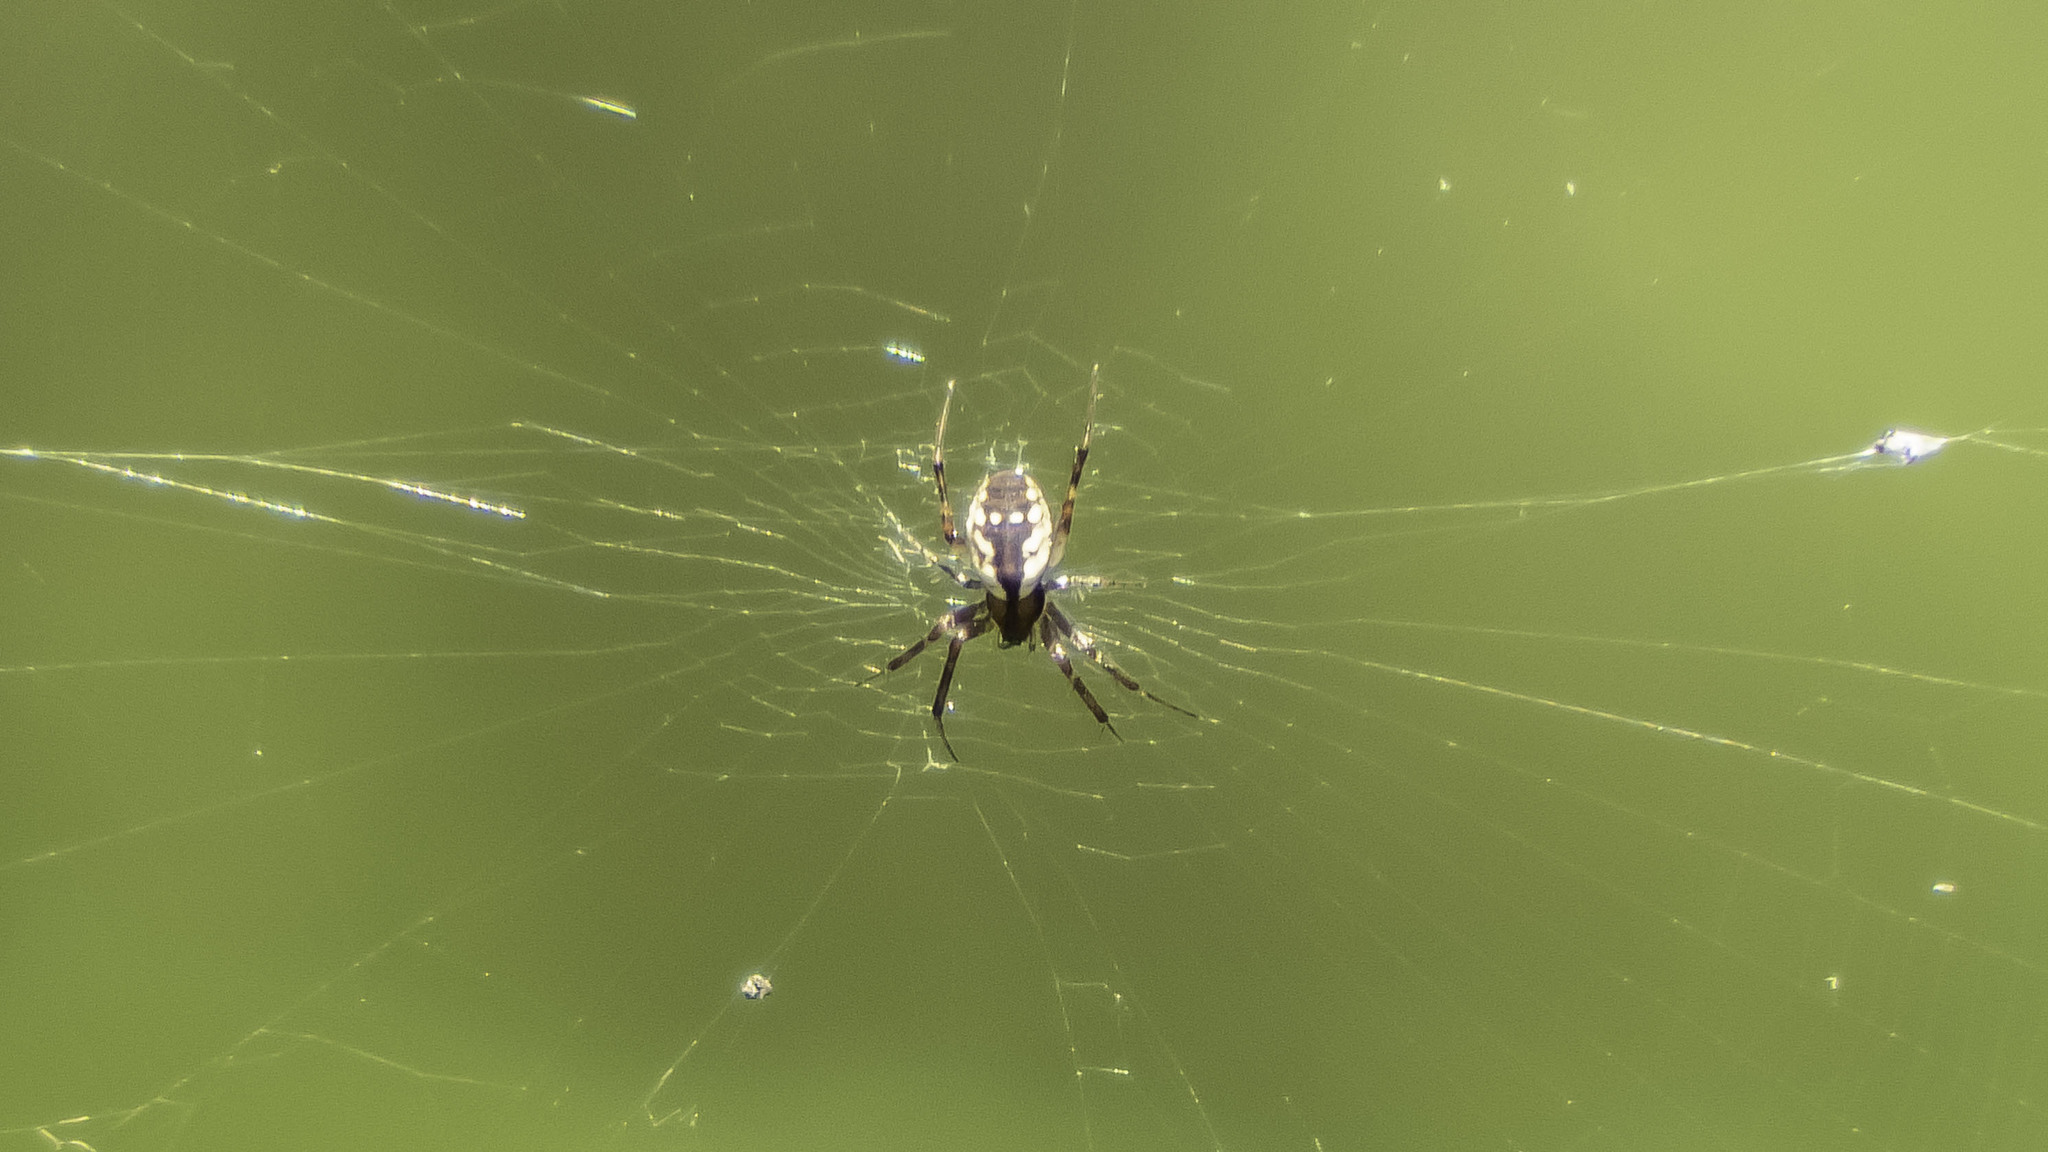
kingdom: Animalia
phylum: Arthropoda
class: Arachnida
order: Araneae
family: Araneidae
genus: Mangora
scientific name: Mangora placida
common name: Tuft-legged orbweaver
